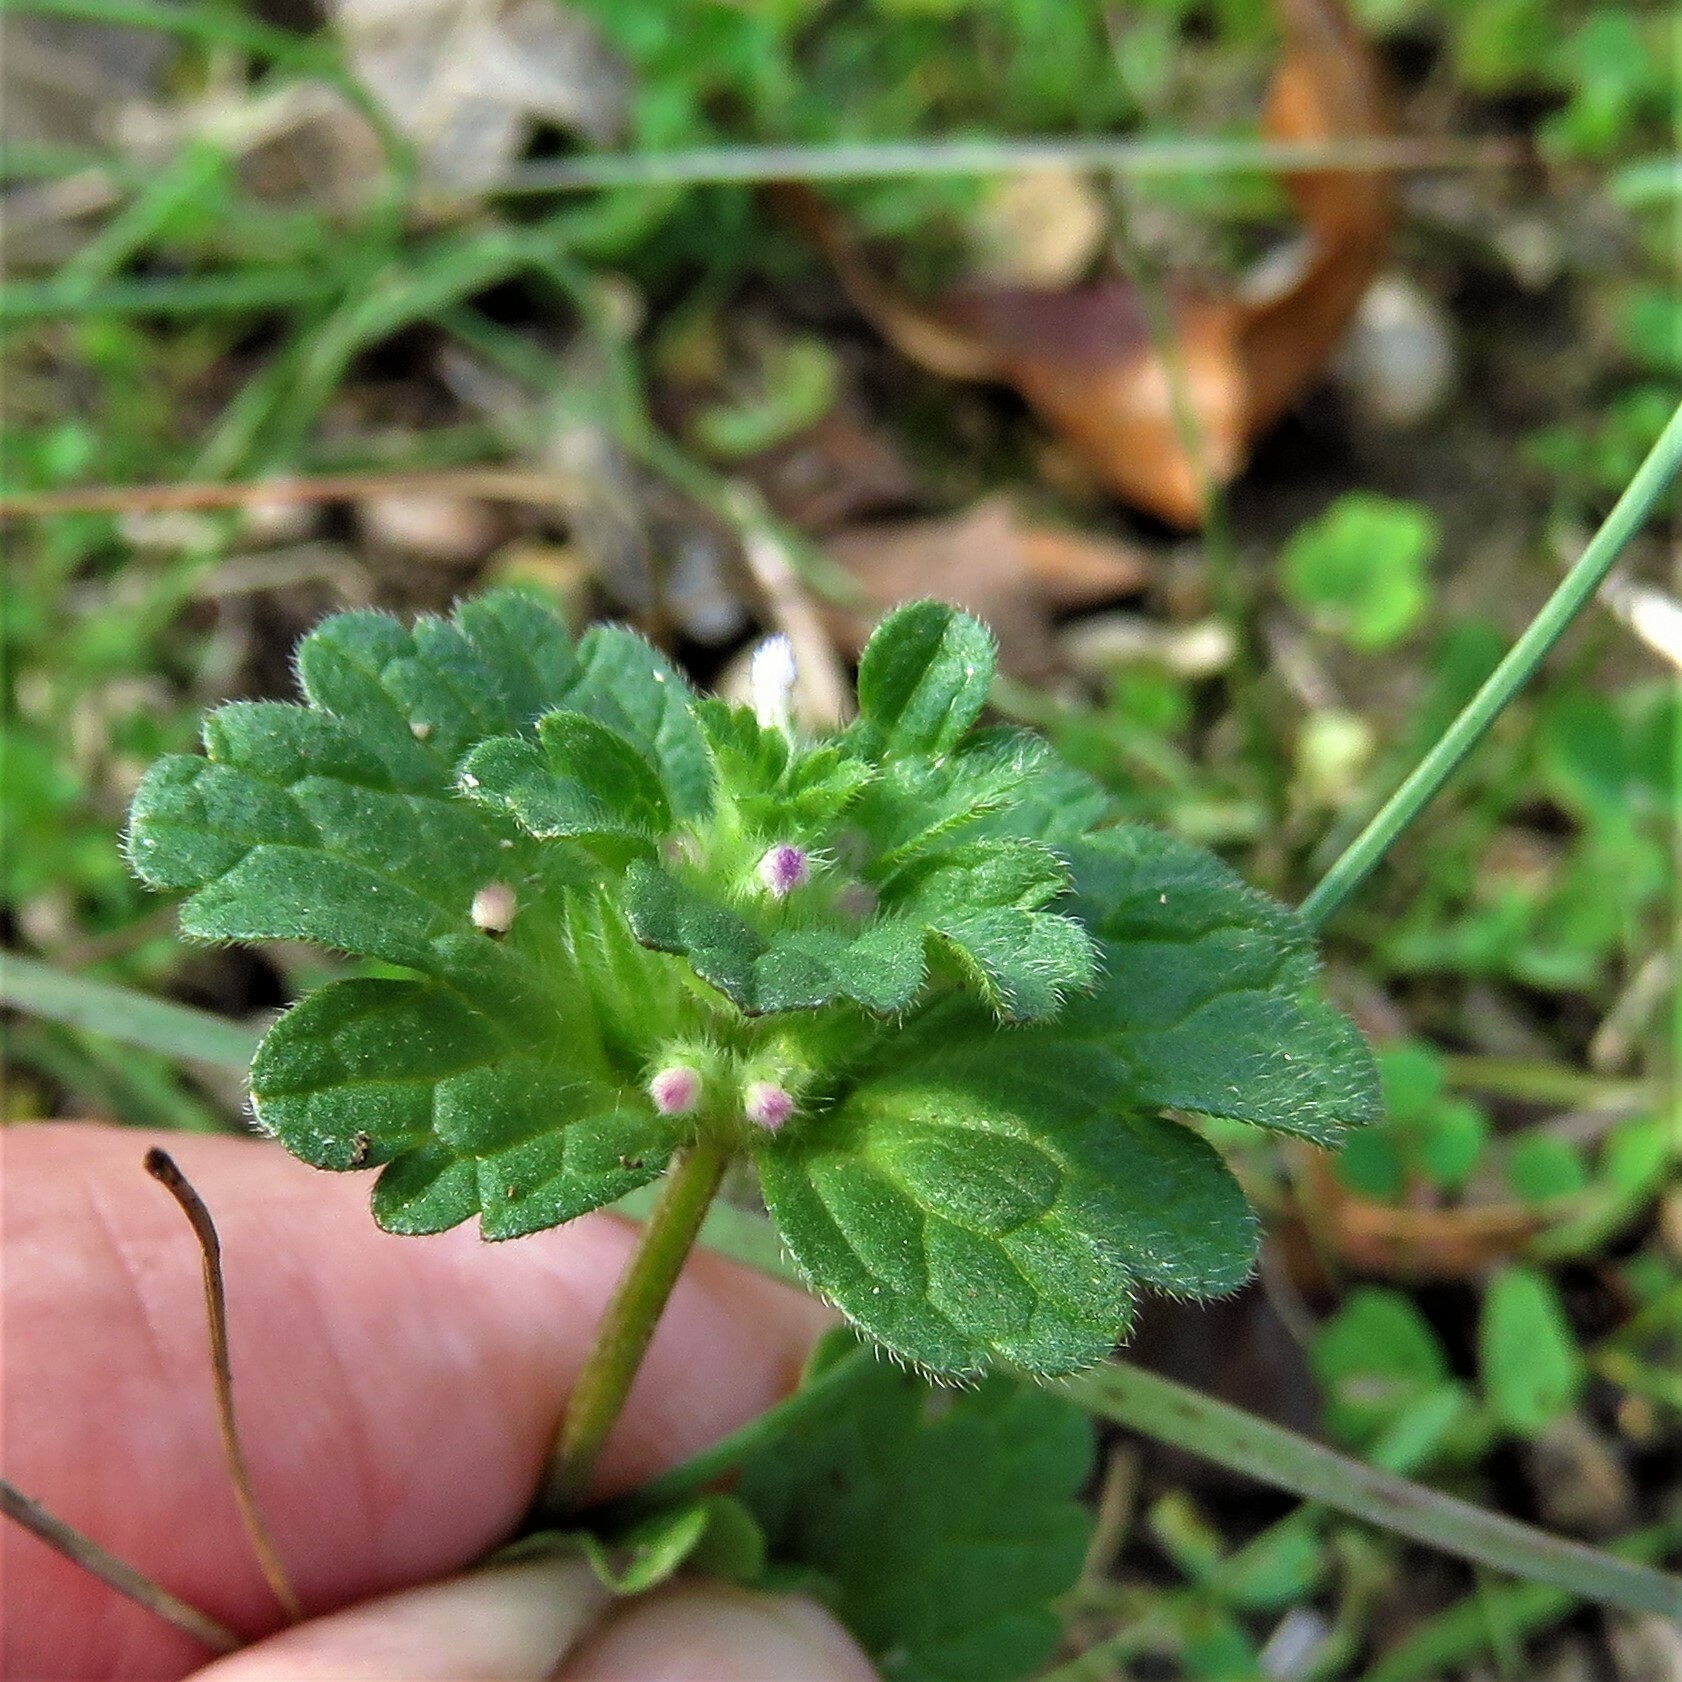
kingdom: Plantae
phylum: Tracheophyta
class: Magnoliopsida
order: Lamiales
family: Lamiaceae
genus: Lamium
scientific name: Lamium amplexicaule
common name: Henbit dead-nettle
